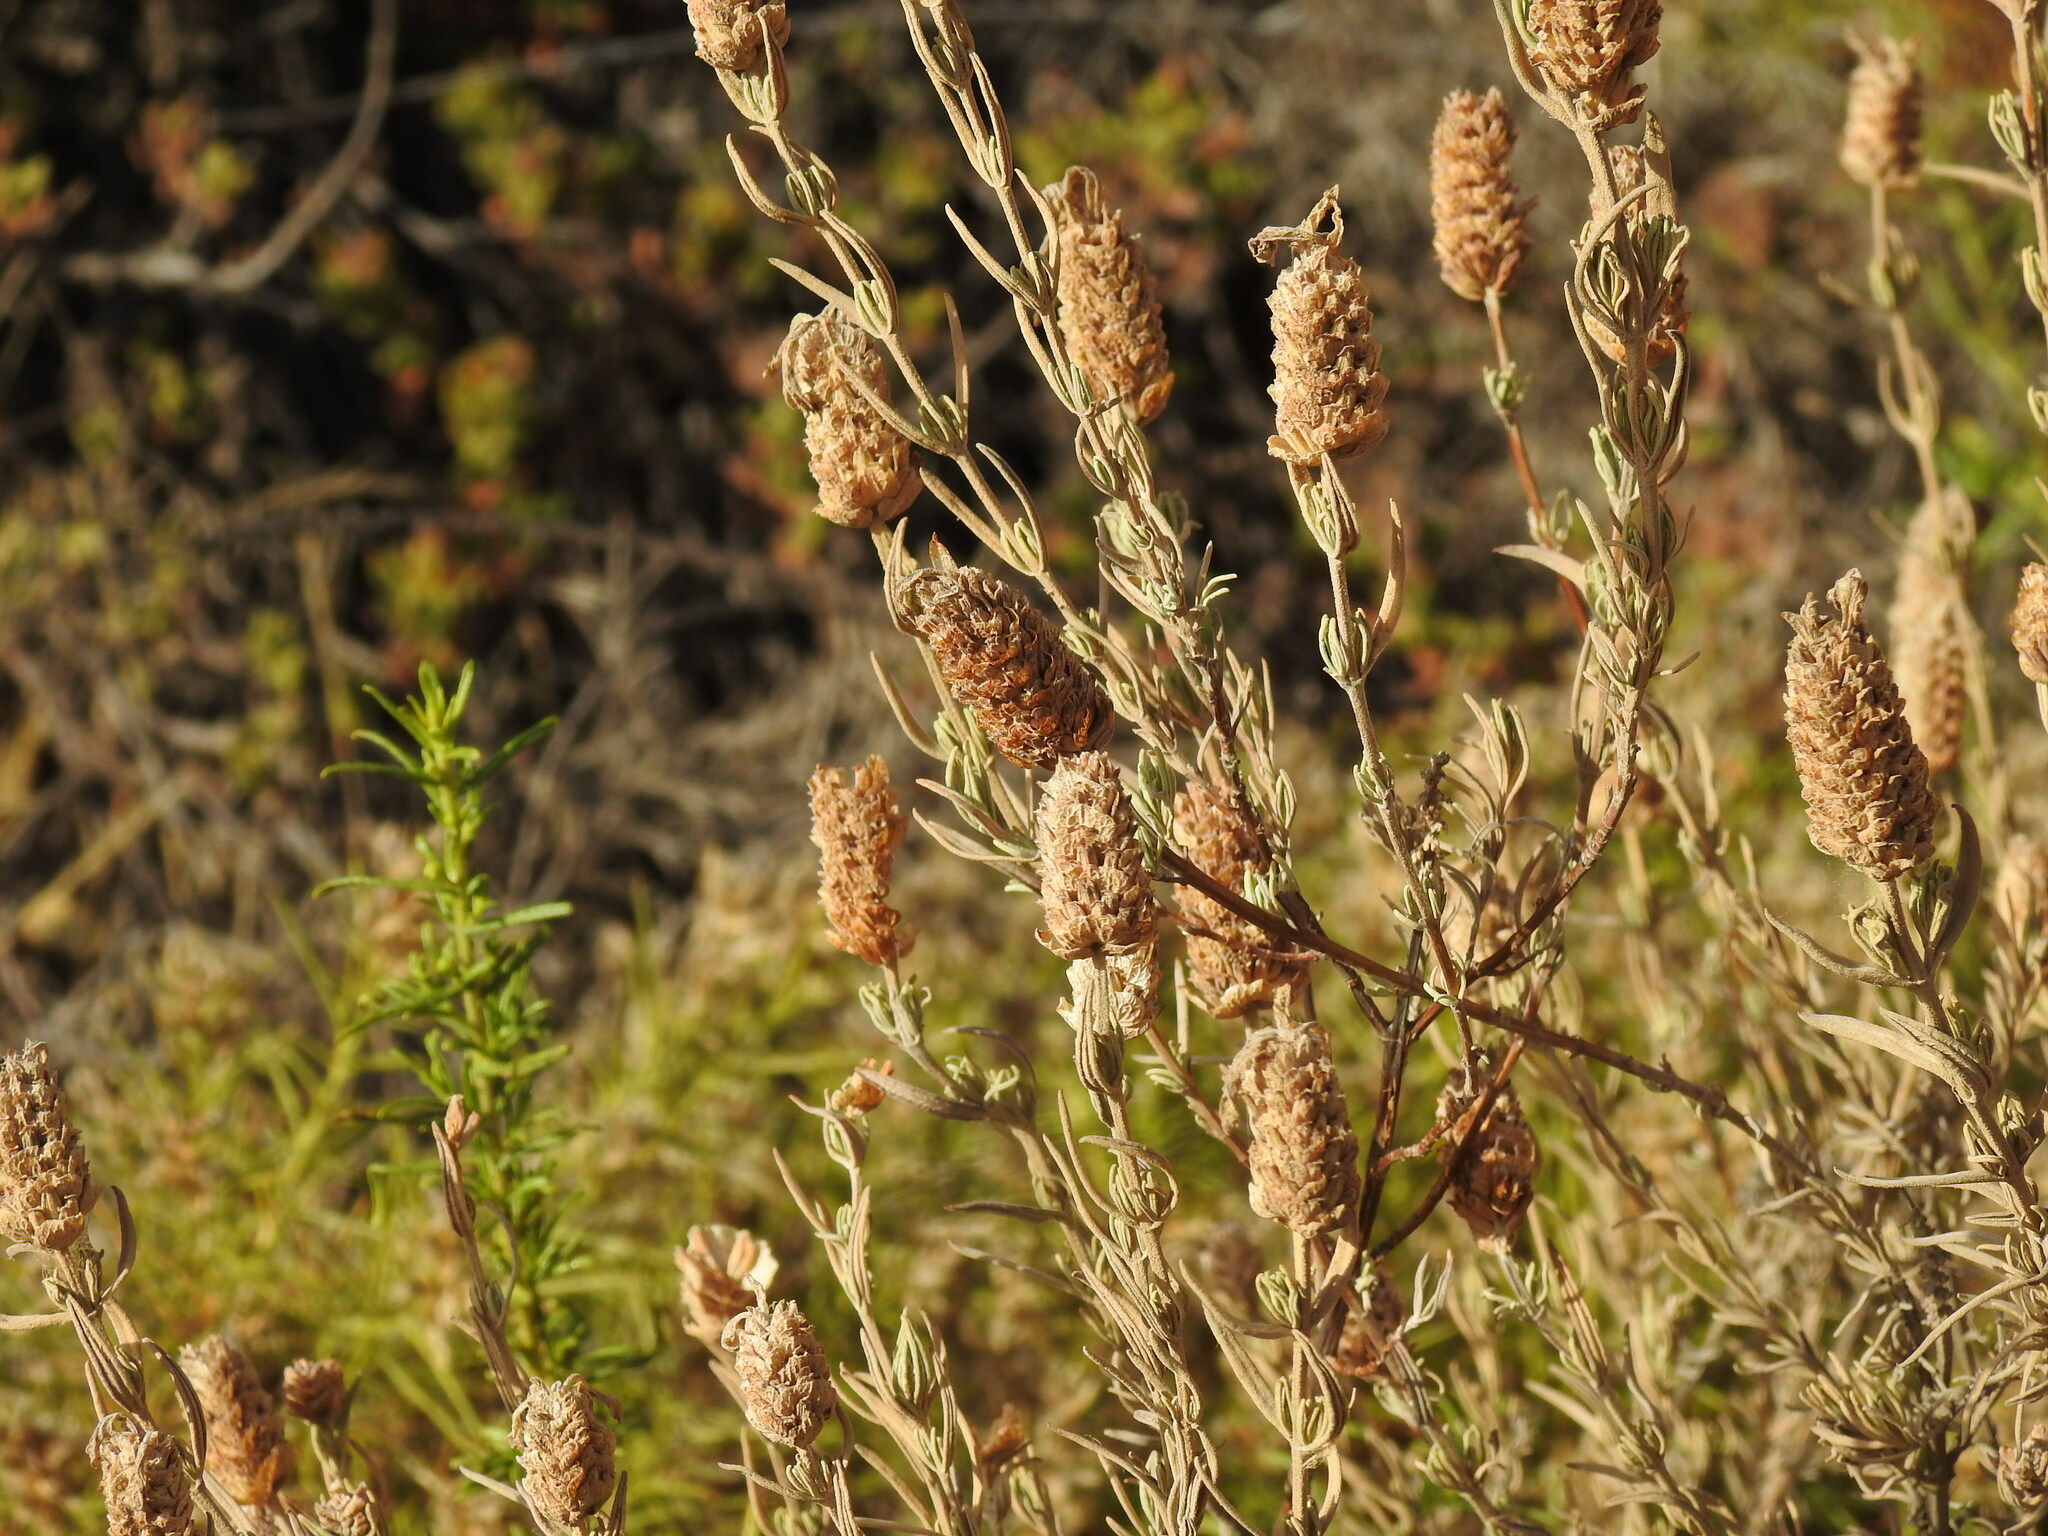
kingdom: Plantae
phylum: Tracheophyta
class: Magnoliopsida
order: Lamiales
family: Lamiaceae
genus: Lavandula
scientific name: Lavandula stoechas
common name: French lavender
